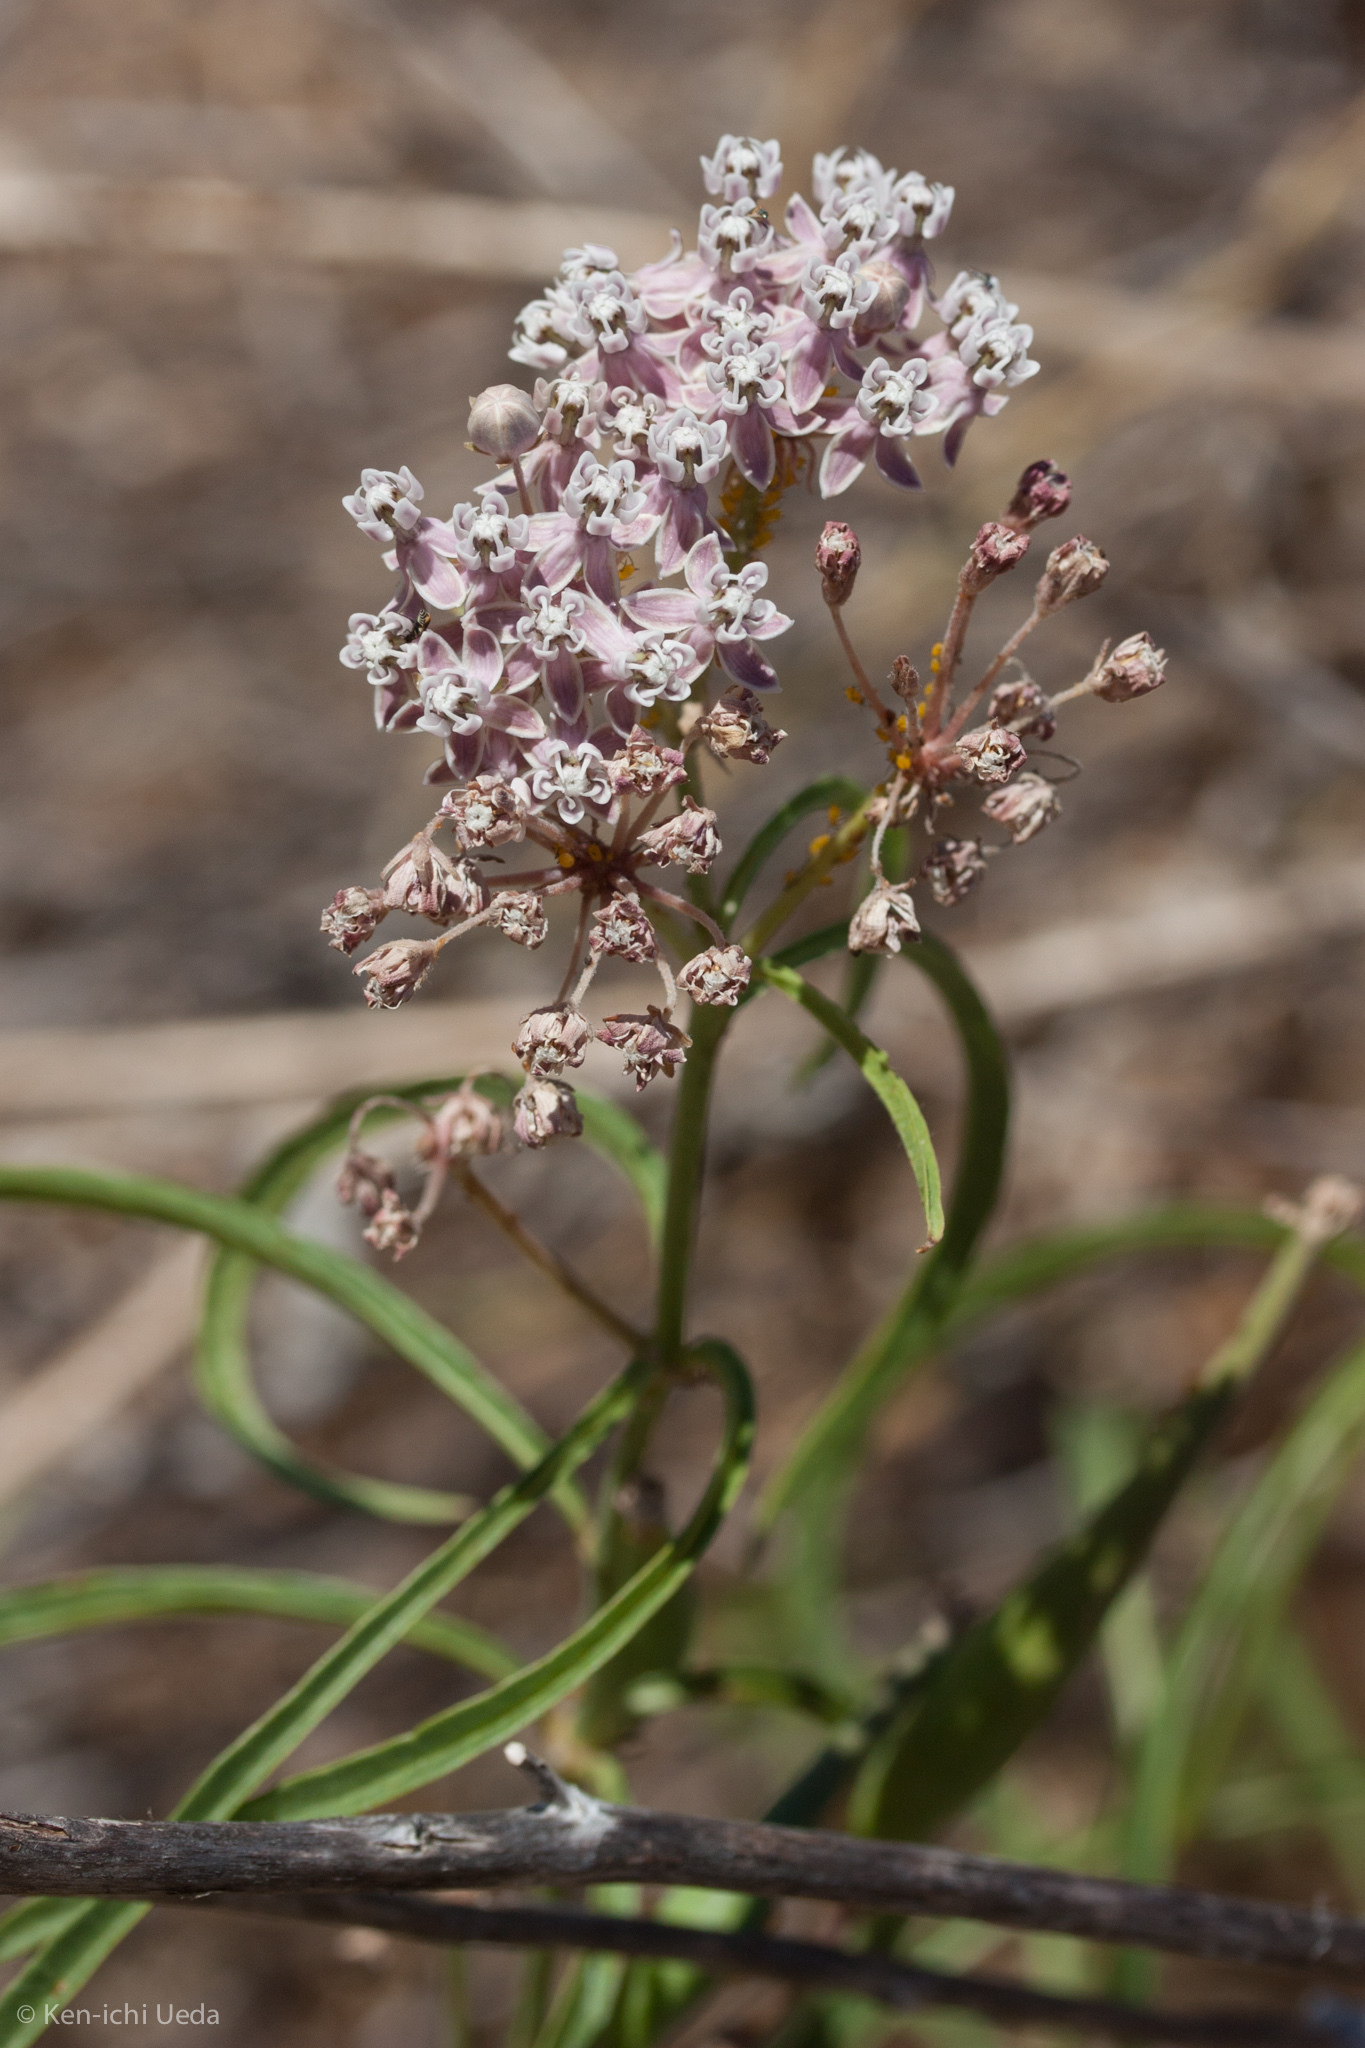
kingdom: Plantae
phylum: Tracheophyta
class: Magnoliopsida
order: Gentianales
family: Apocynaceae
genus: Asclepias
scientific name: Asclepias fascicularis
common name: Mexican milkweed
